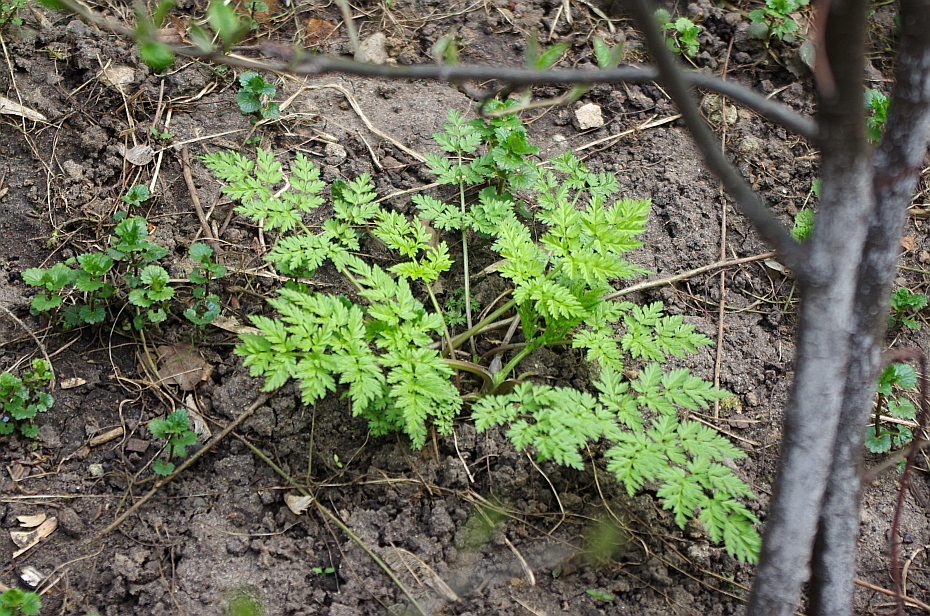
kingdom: Plantae
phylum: Tracheophyta
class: Magnoliopsida
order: Apiales
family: Apiaceae
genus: Anthriscus
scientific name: Anthriscus sylvestris
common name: Cow parsley
